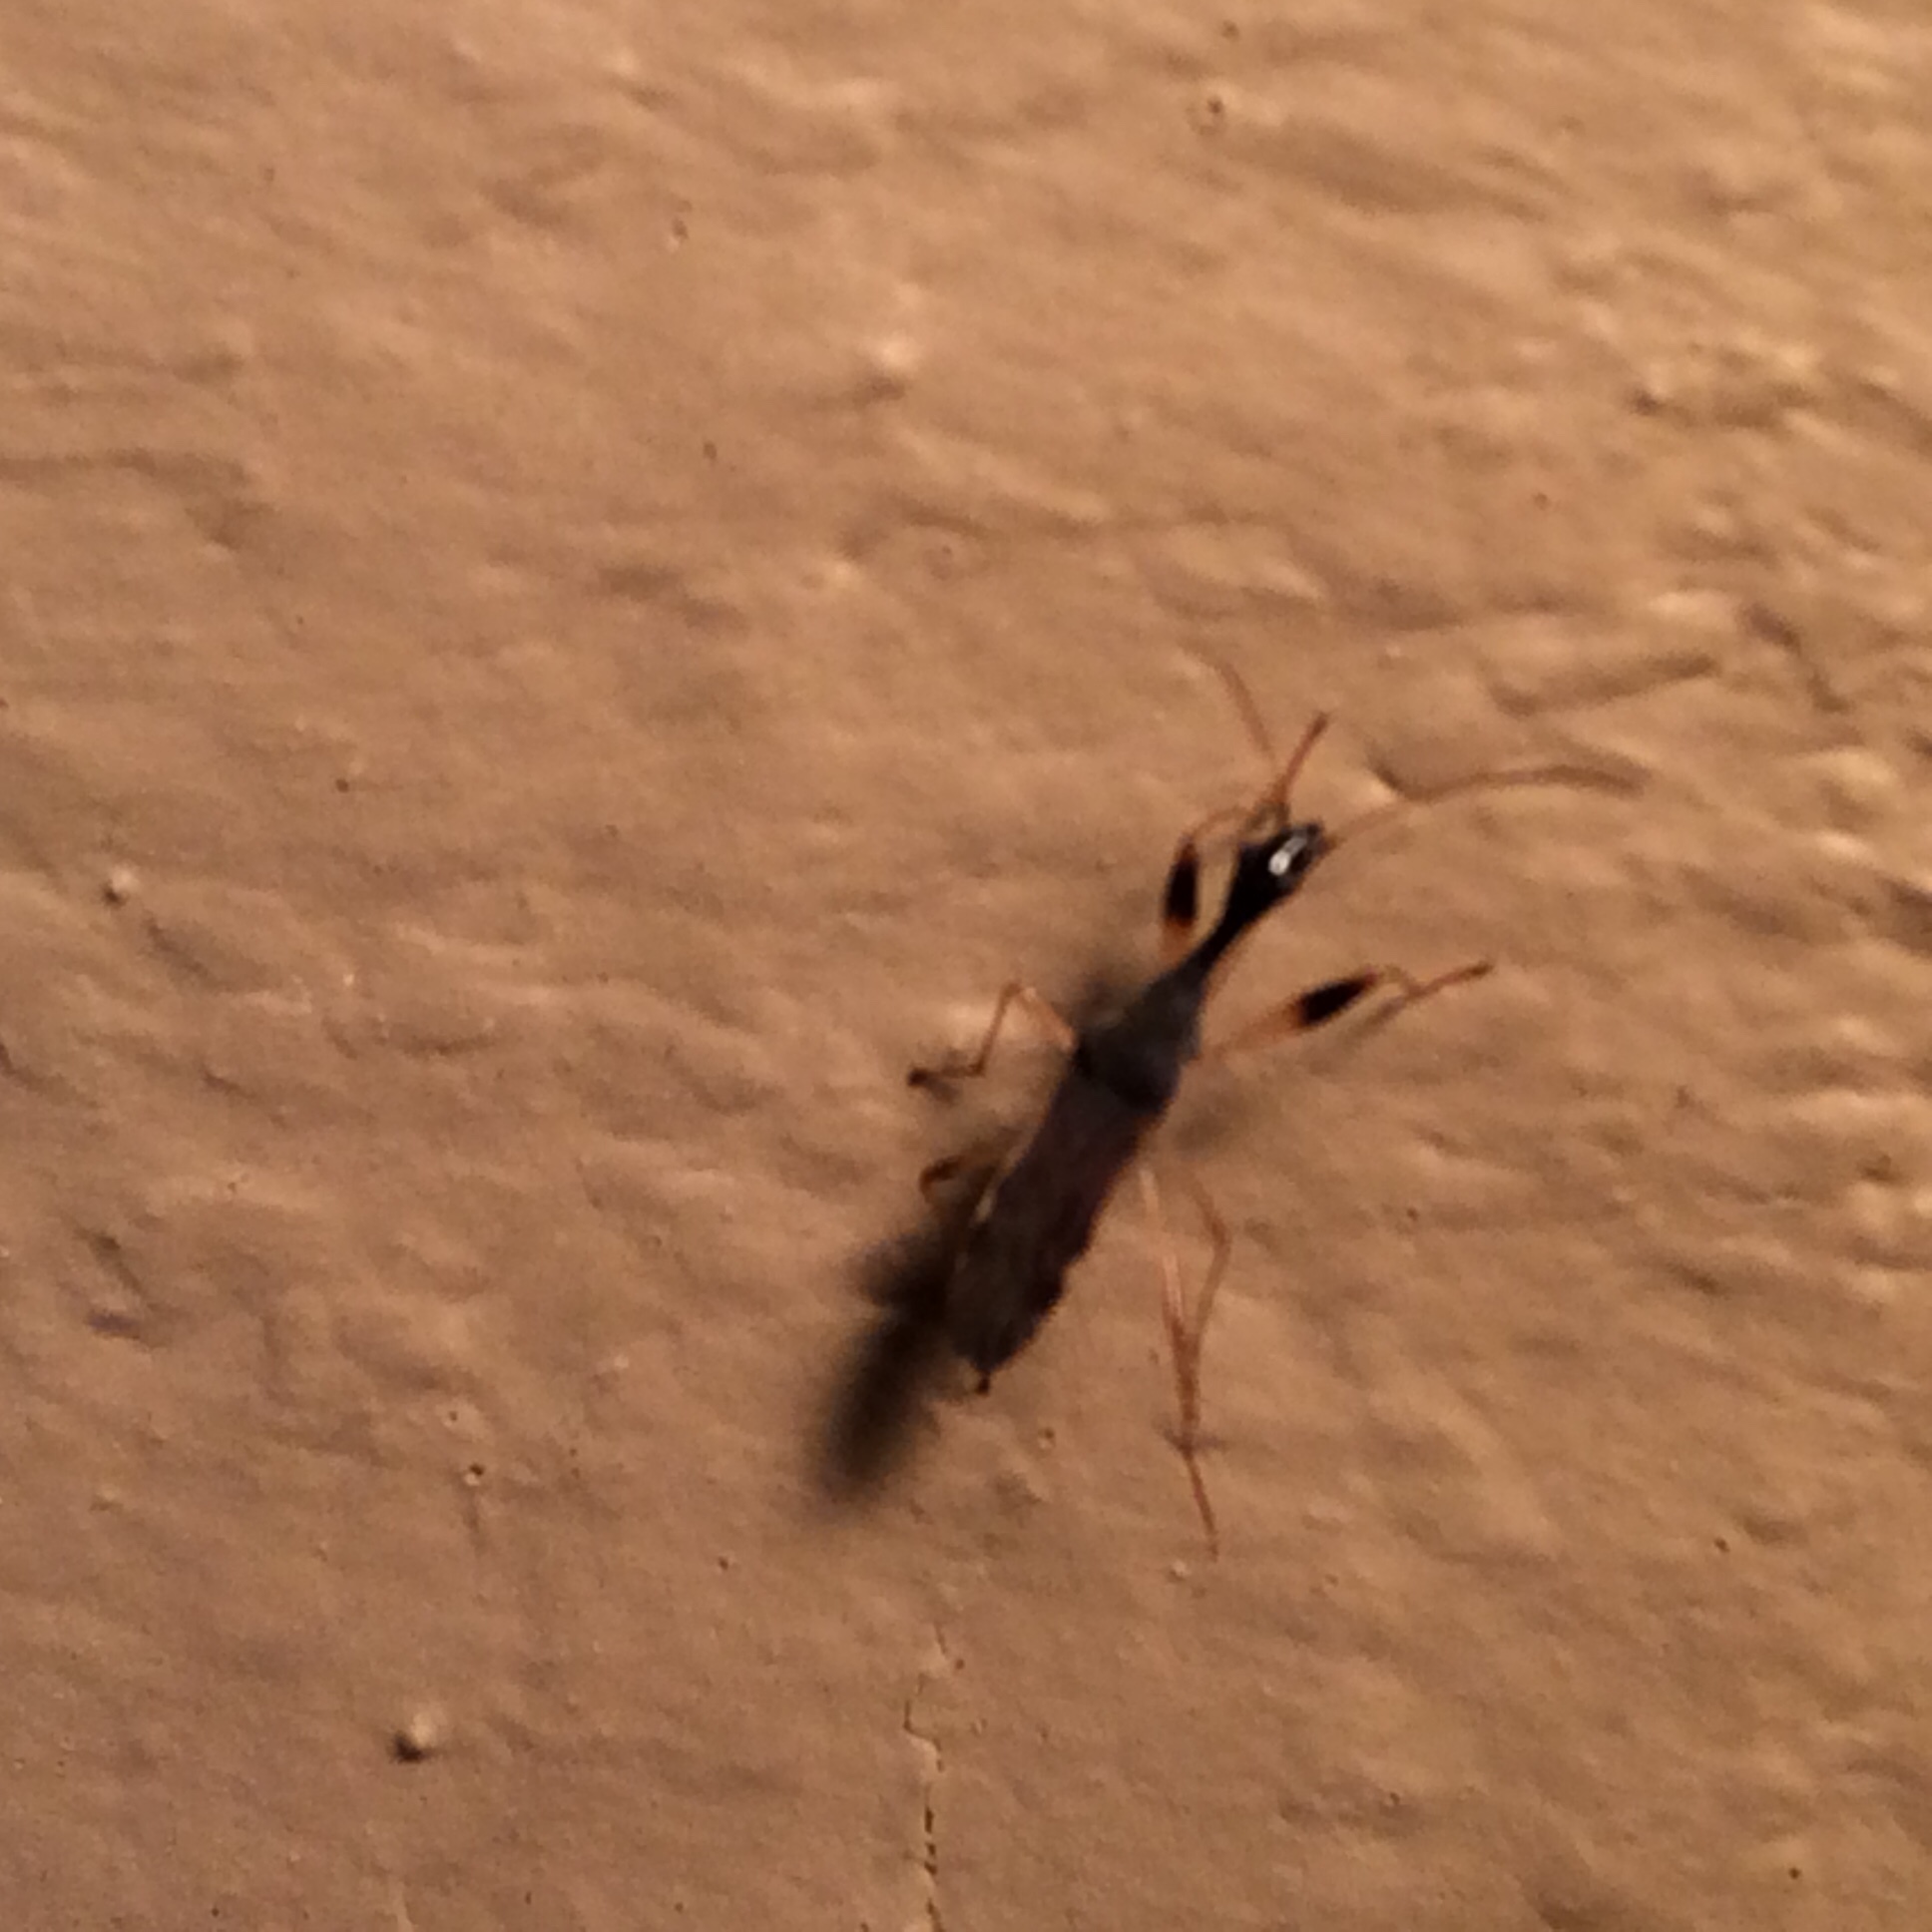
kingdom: Animalia
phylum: Arthropoda
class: Insecta
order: Hemiptera
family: Rhyparochromidae
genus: Myodocha
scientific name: Myodocha serripes
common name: Long-necked seed bug
